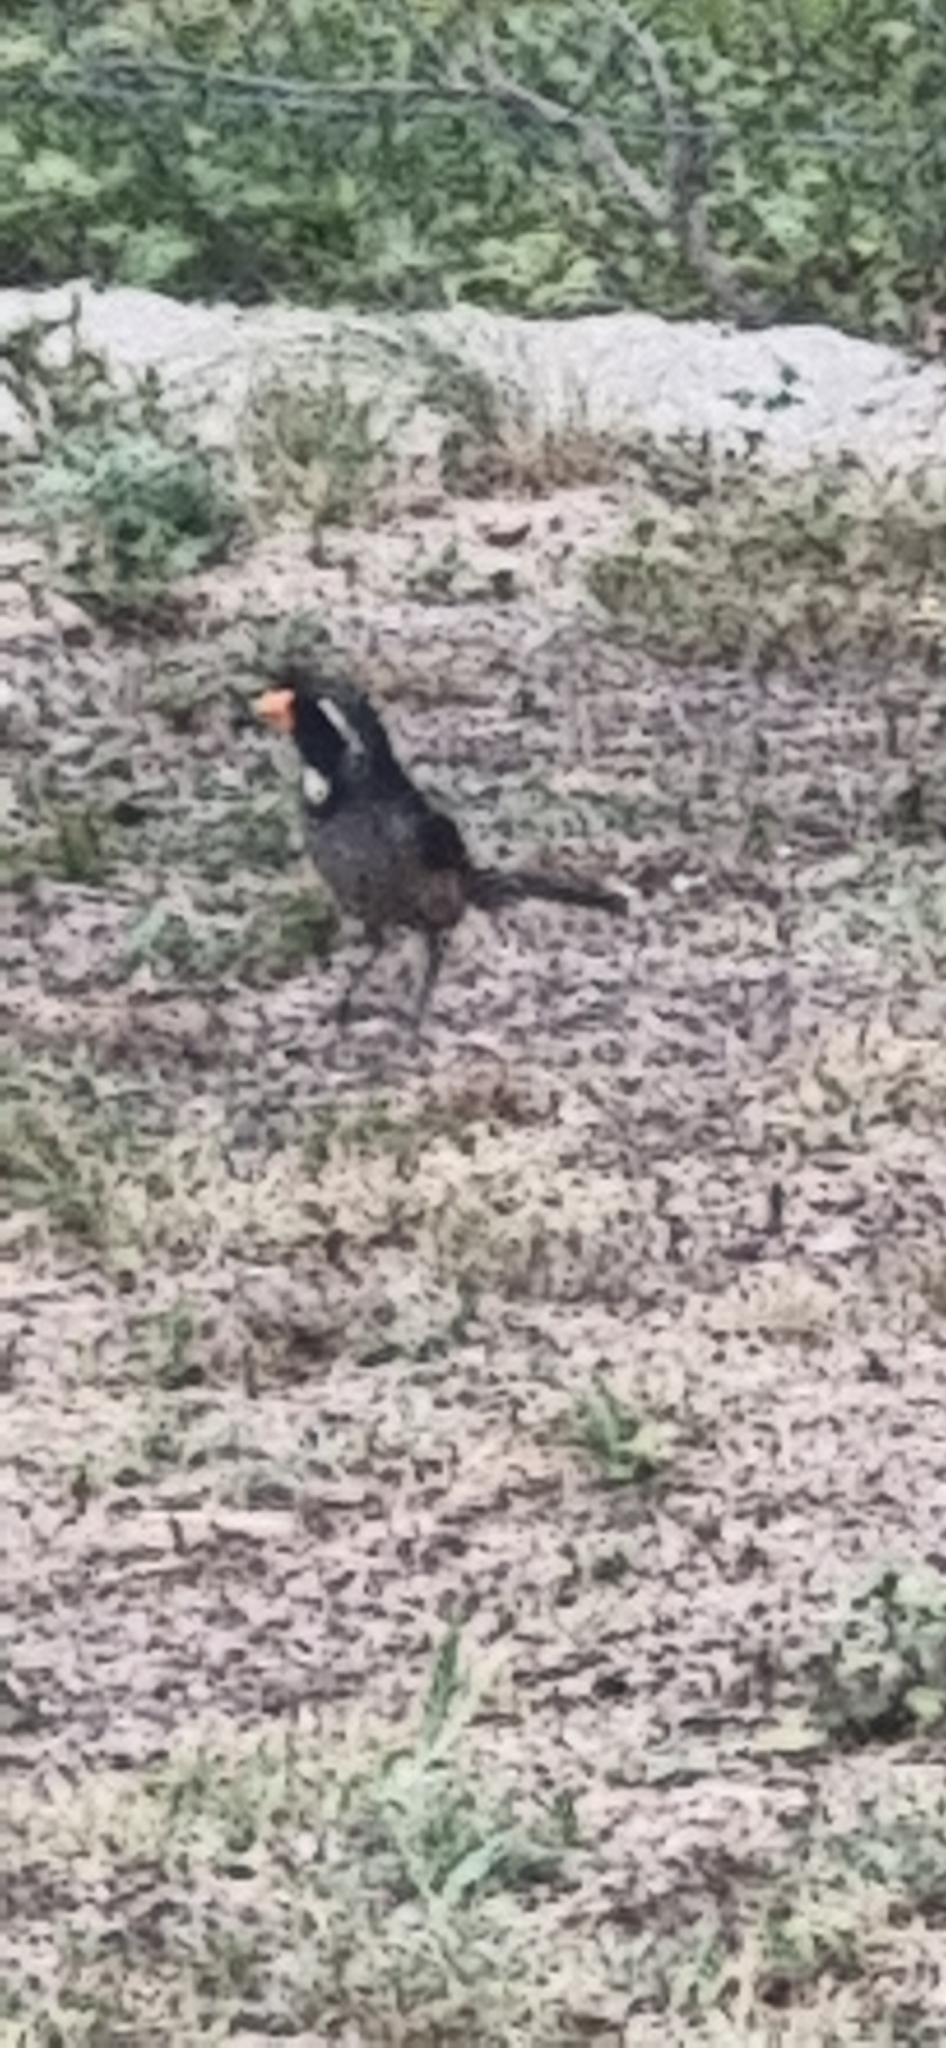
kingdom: Animalia
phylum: Chordata
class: Aves
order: Passeriformes
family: Thraupidae
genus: Saltator
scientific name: Saltator aurantiirostris
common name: Golden-billed saltator
